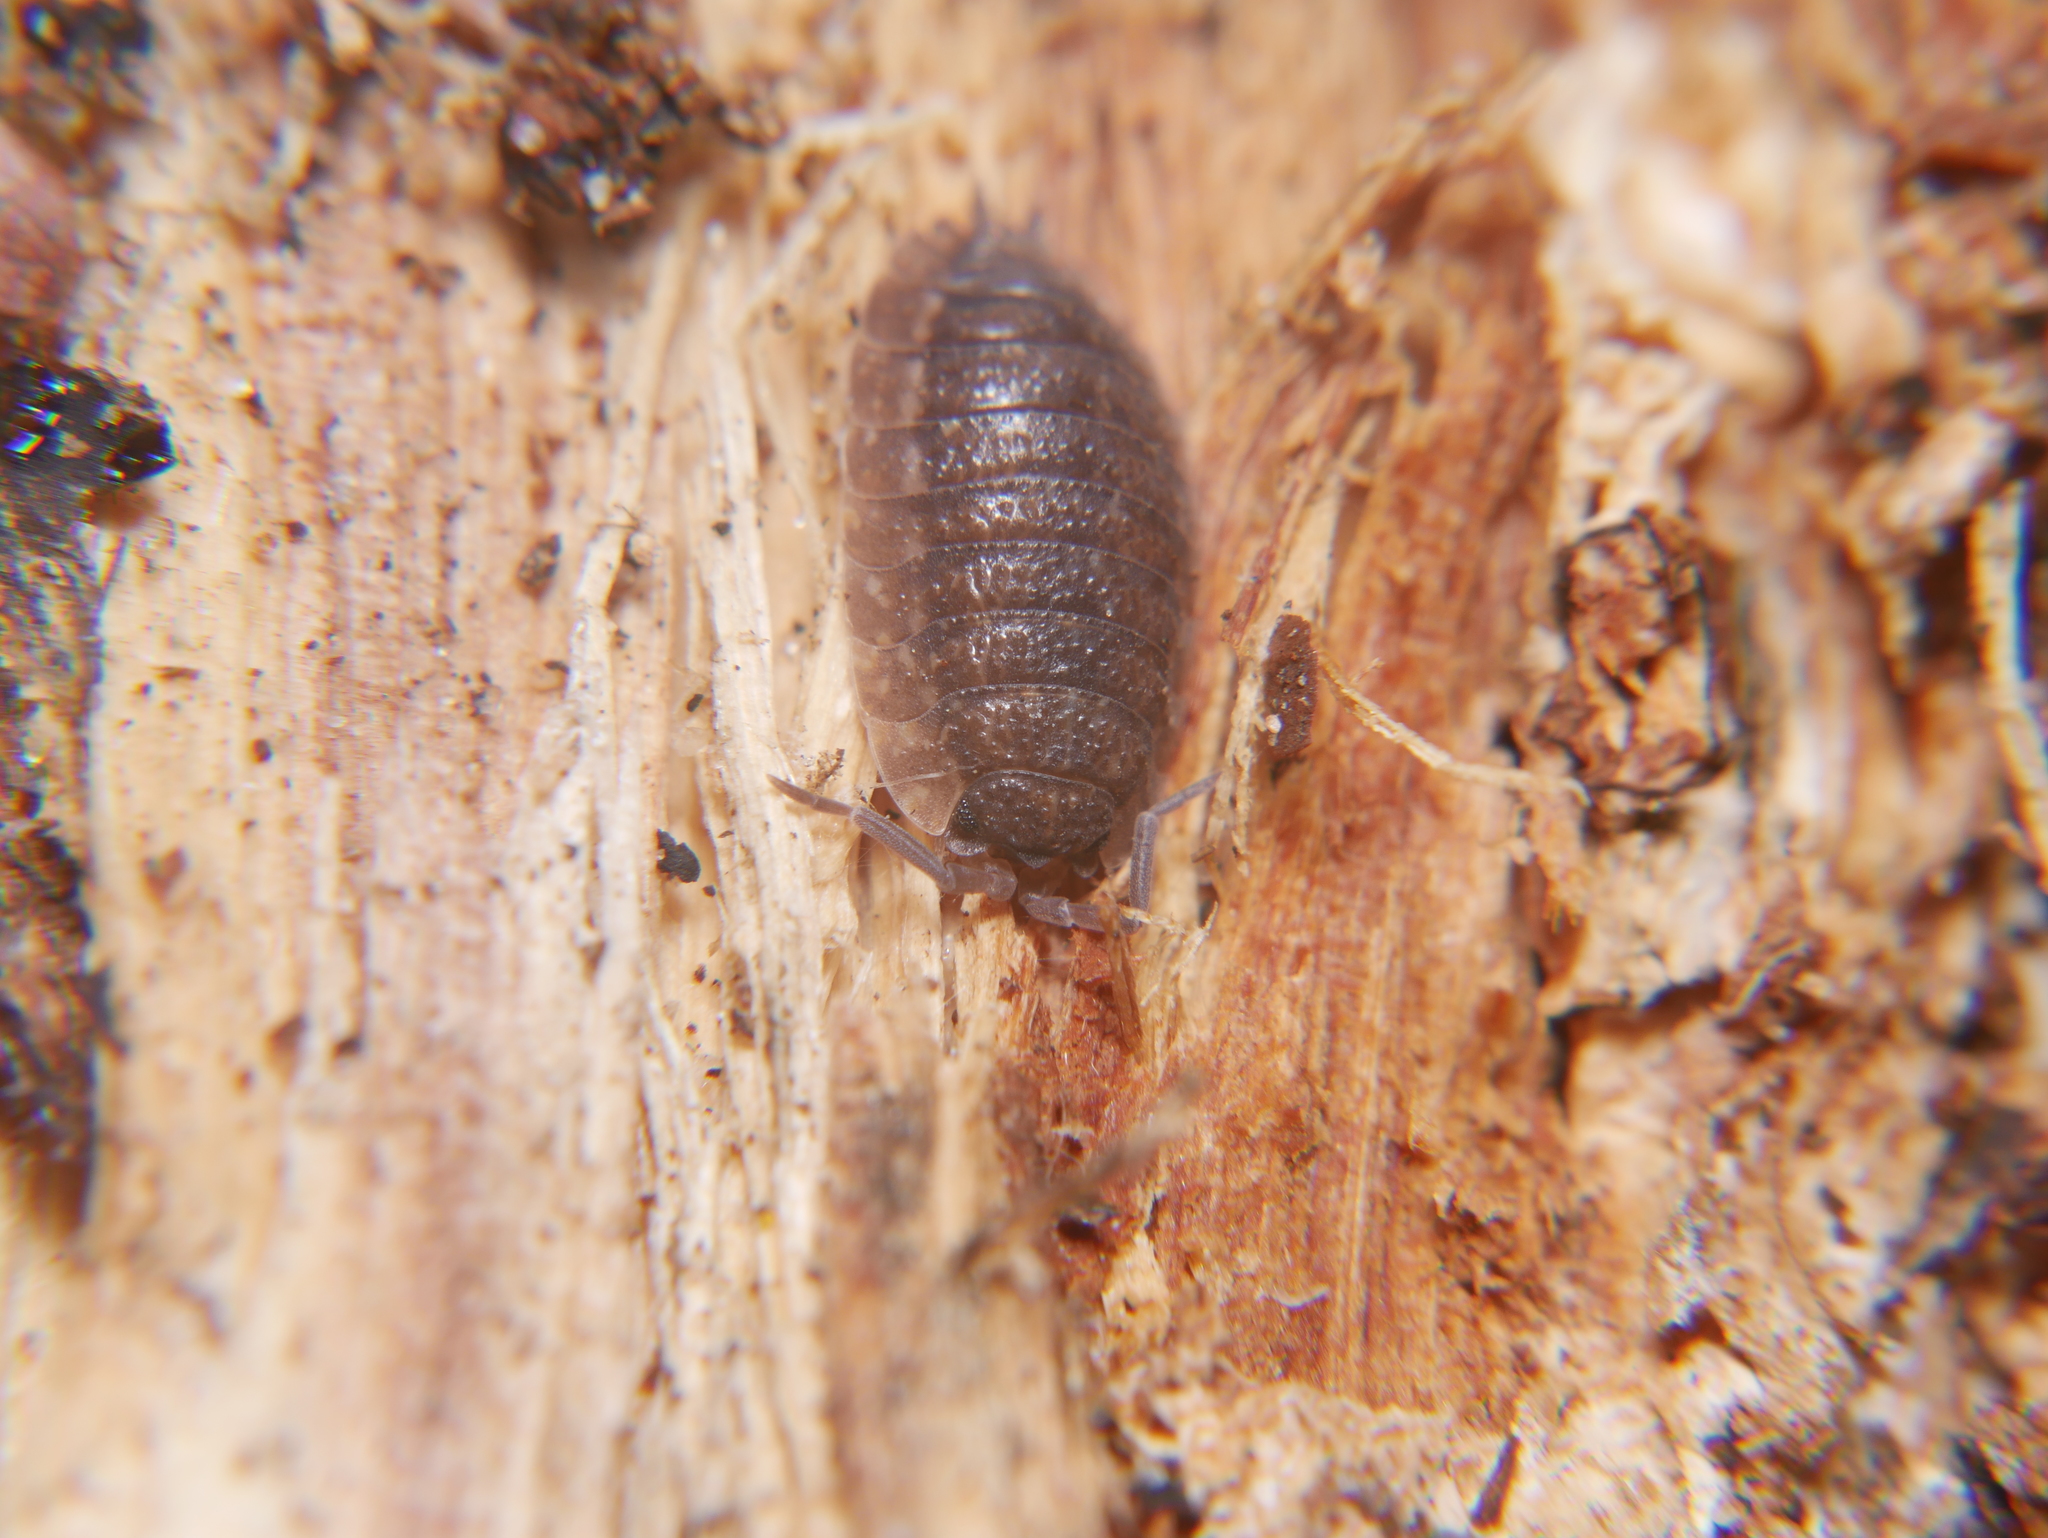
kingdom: Animalia
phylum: Arthropoda
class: Malacostraca
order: Isopoda
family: Porcellionidae
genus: Porcellio
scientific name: Porcellio scaber
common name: Common rough woodlouse
